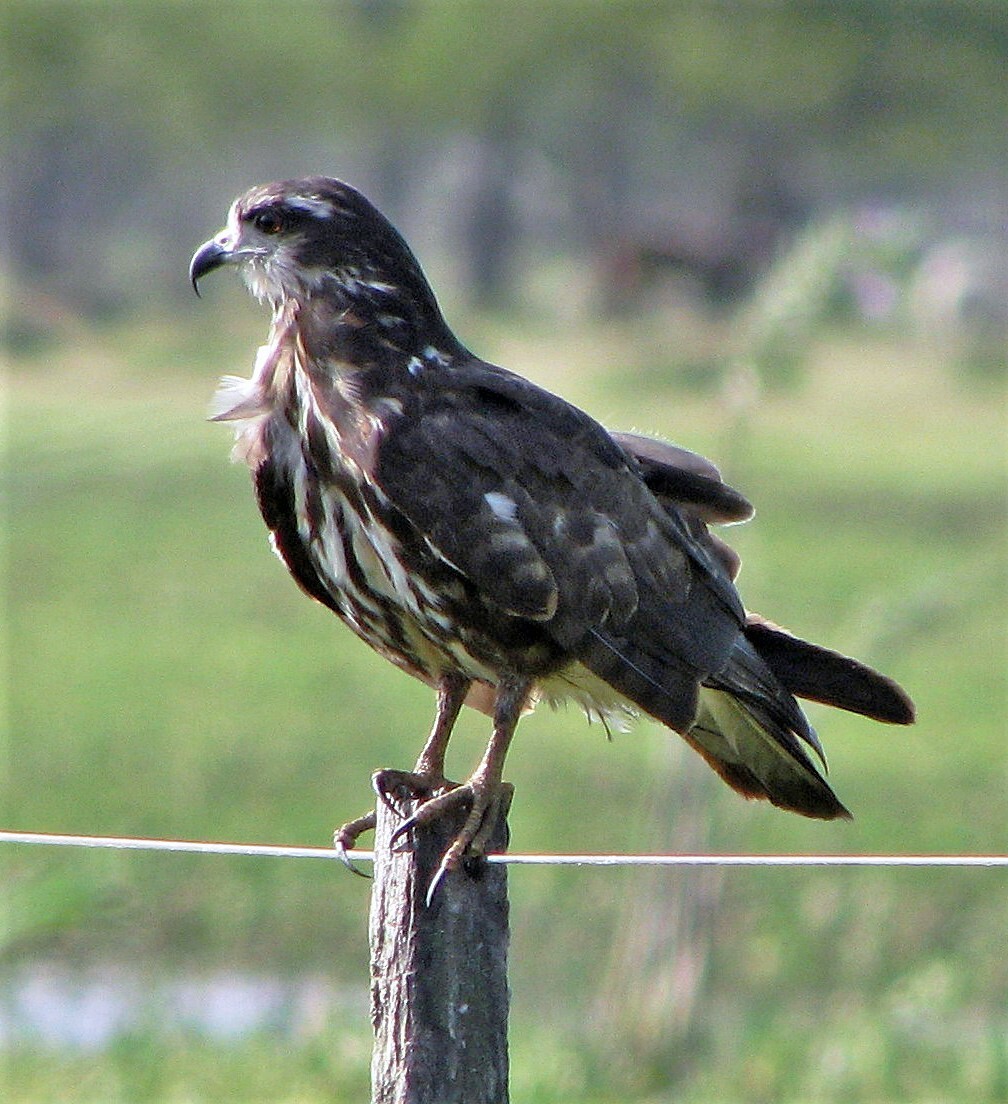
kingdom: Animalia
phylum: Chordata
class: Aves
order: Accipitriformes
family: Accipitridae
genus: Rostrhamus
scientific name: Rostrhamus sociabilis
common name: Snail kite
